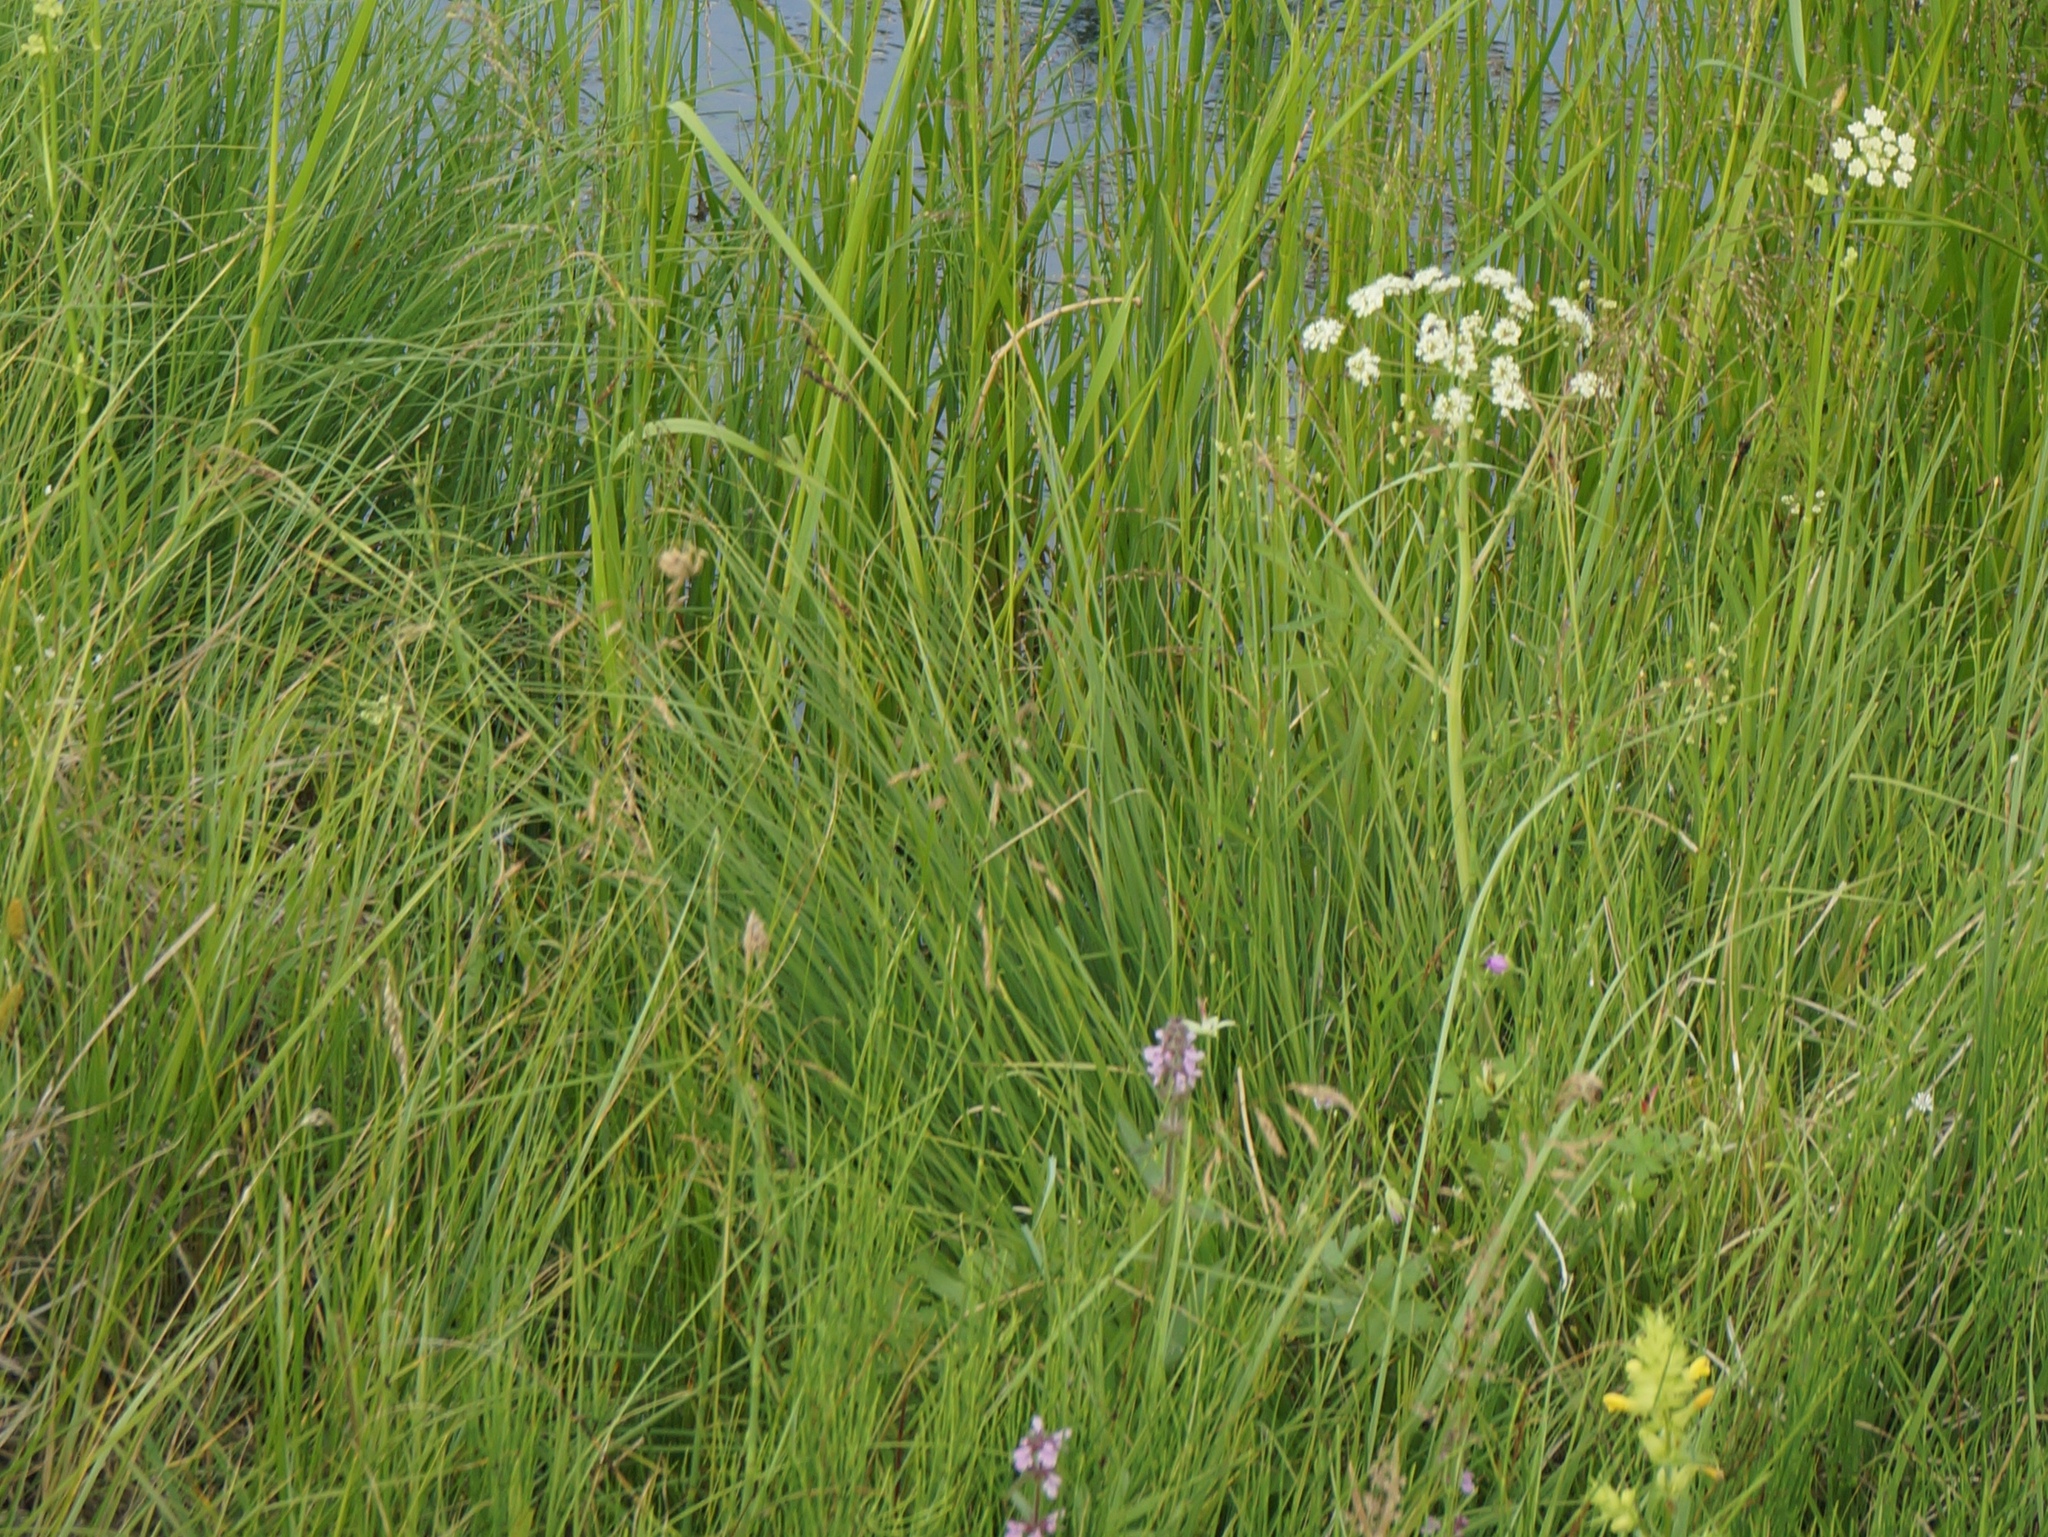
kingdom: Plantae
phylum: Tracheophyta
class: Magnoliopsida
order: Apiales
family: Apiaceae
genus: Sium
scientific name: Sium suave
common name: Hemlock water-parsnip
